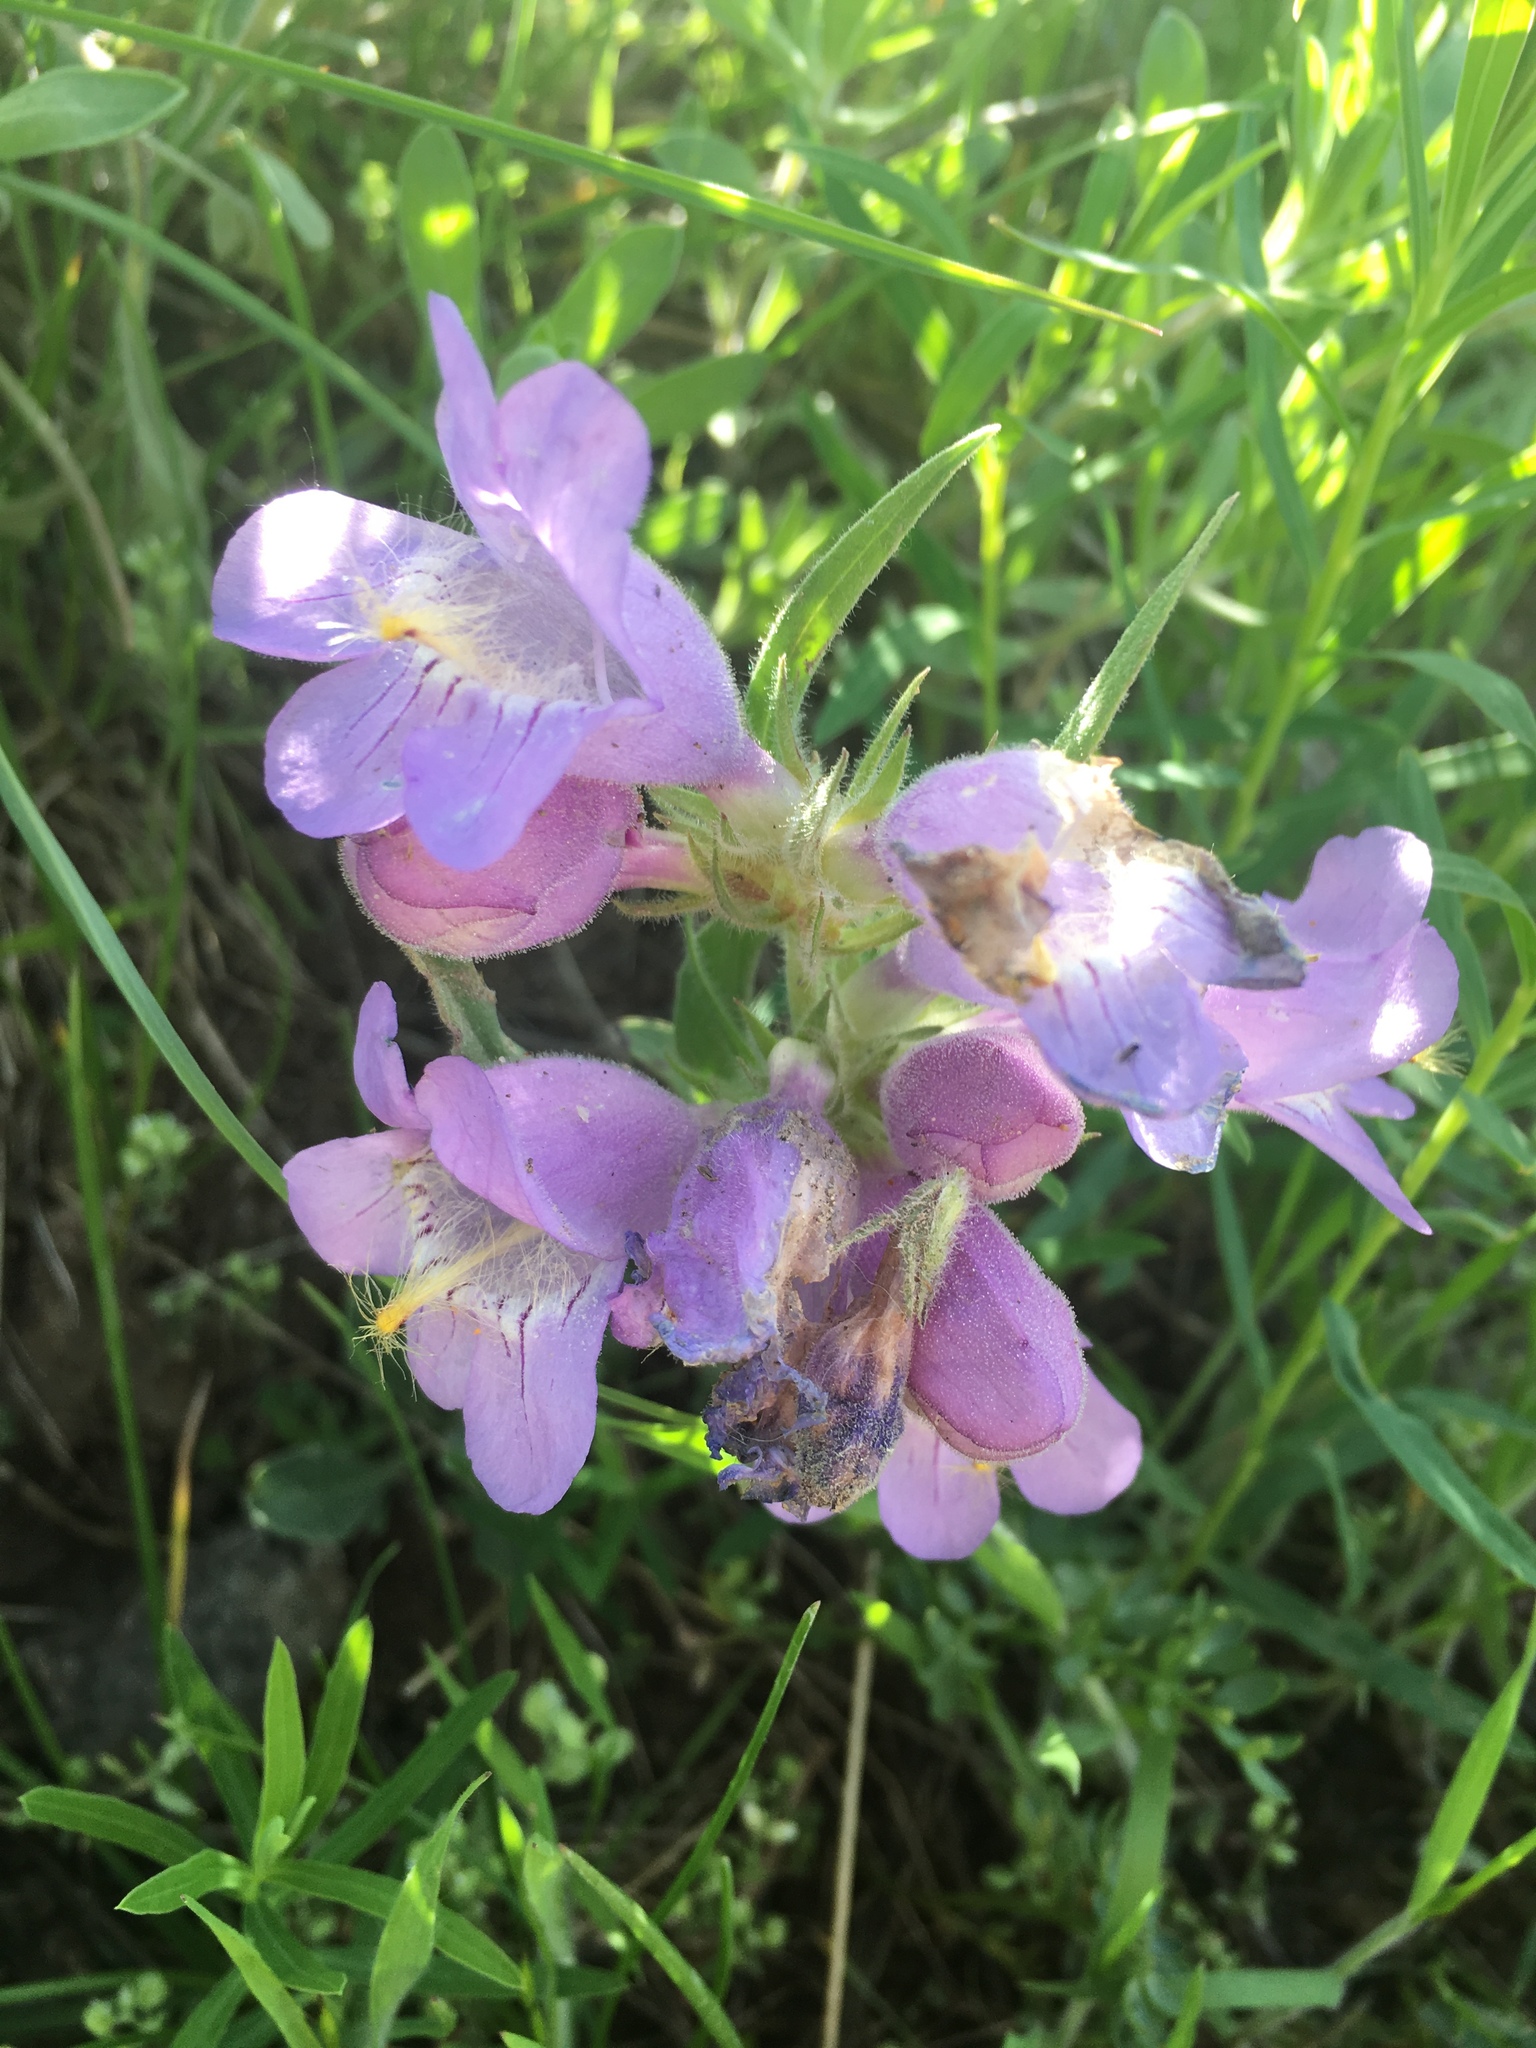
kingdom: Plantae
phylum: Tracheophyta
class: Magnoliopsida
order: Lamiales
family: Plantaginaceae
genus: Penstemon
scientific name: Penstemon eriantherus
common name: Crested beardtongue
